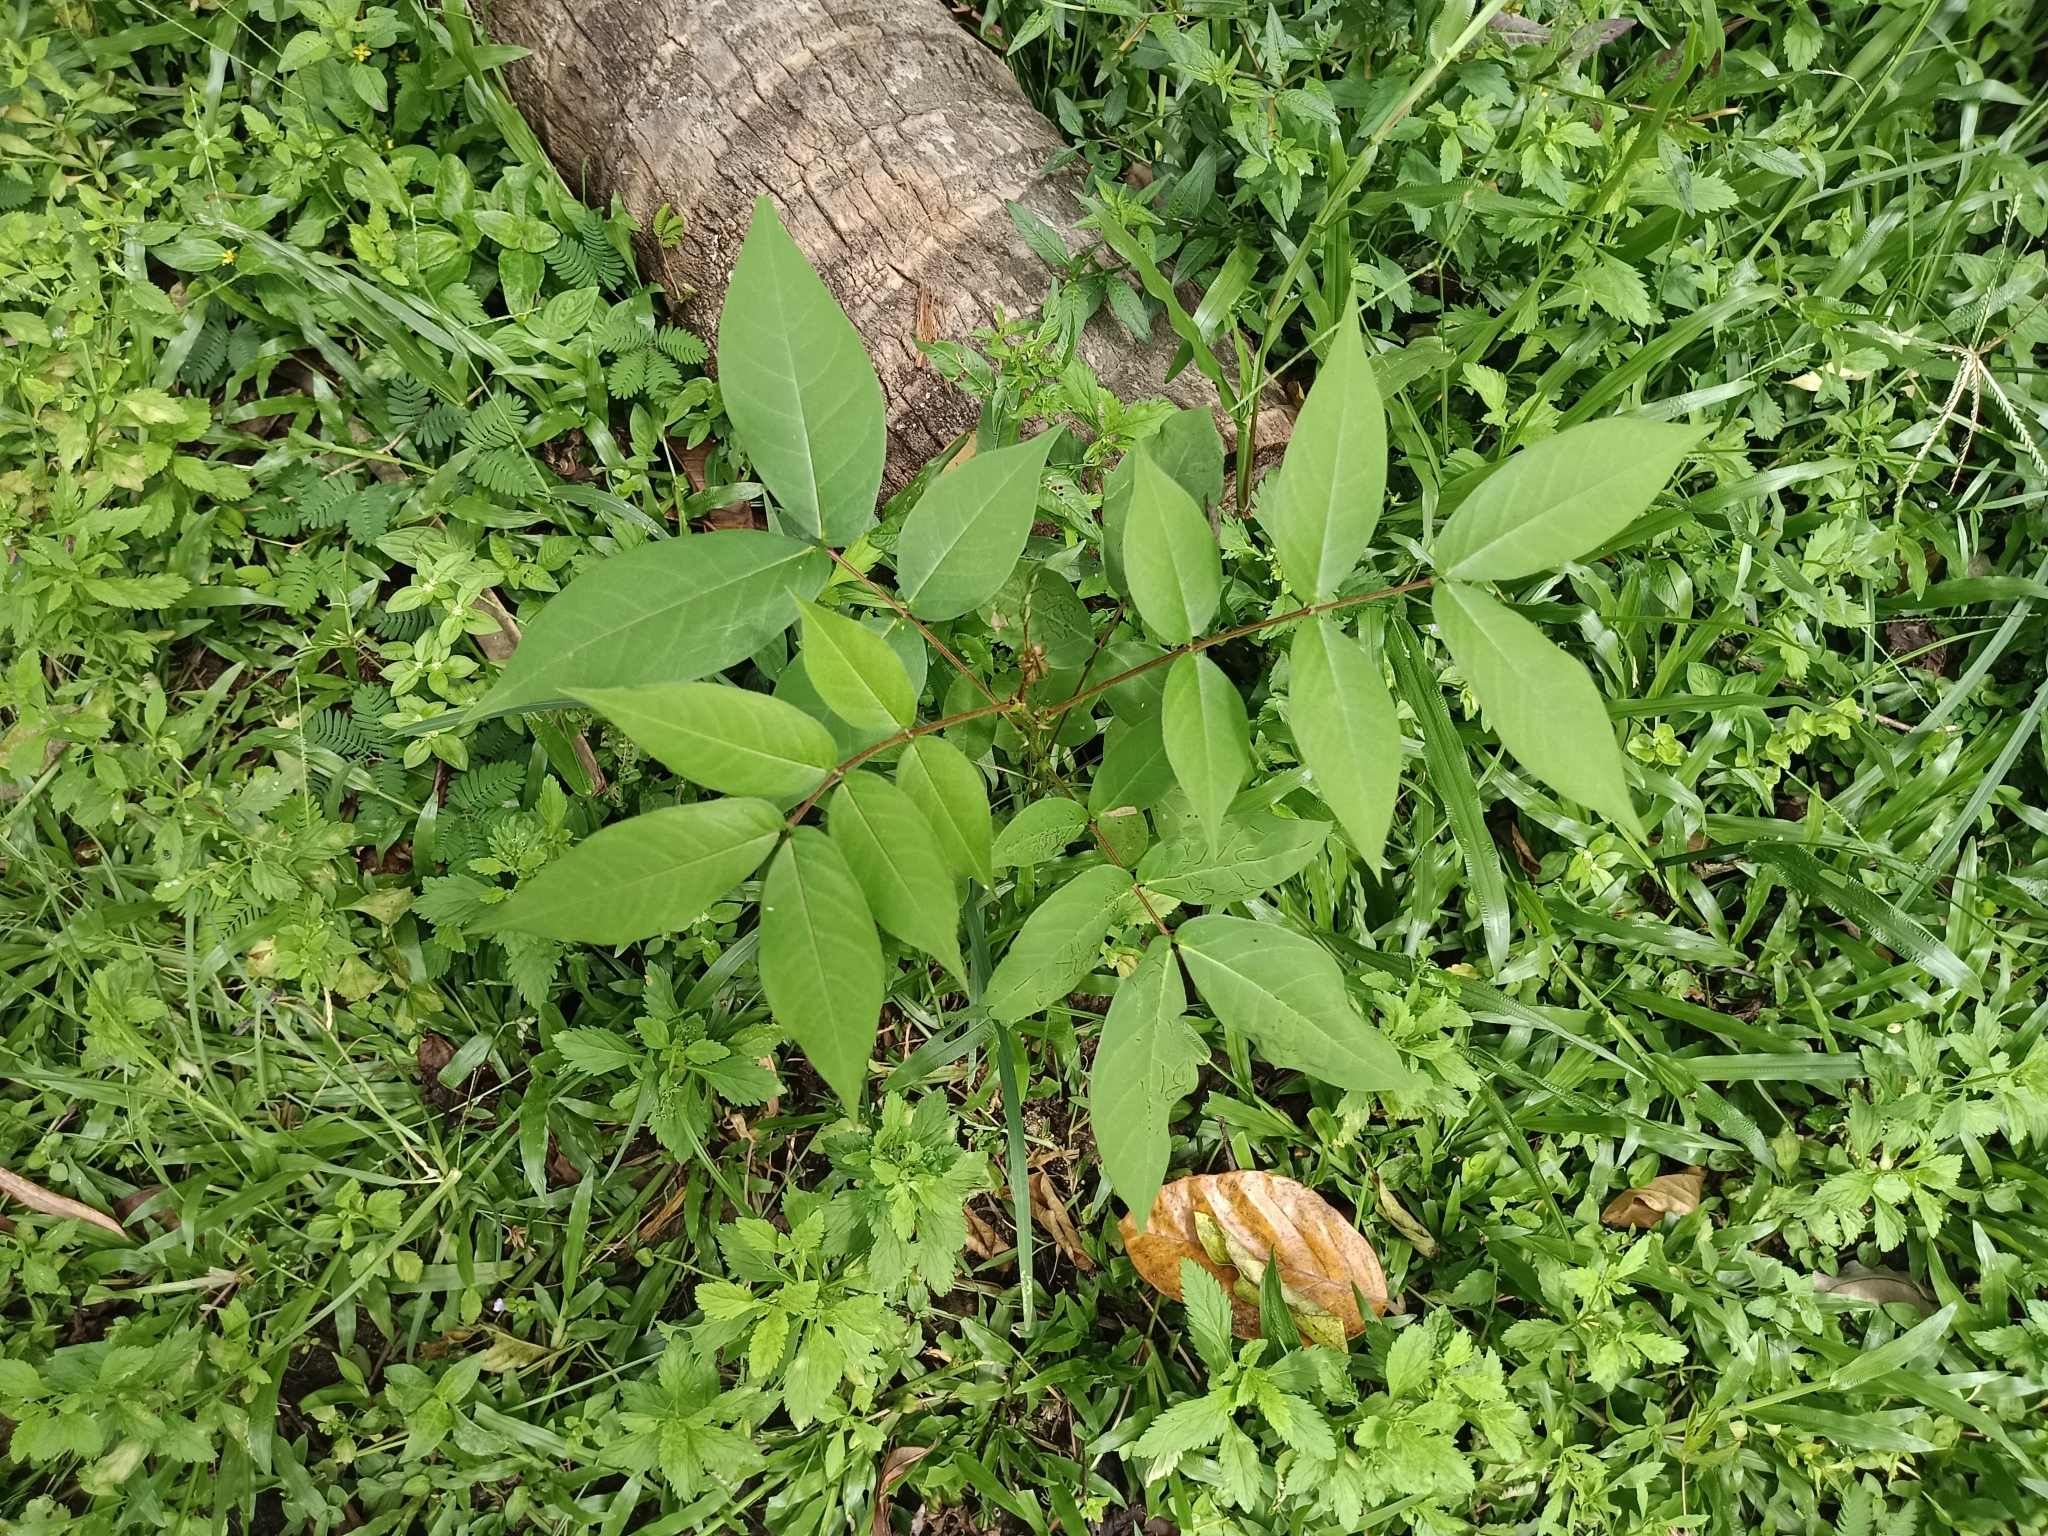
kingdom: Plantae
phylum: Tracheophyta
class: Magnoliopsida
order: Fabales
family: Fabaceae
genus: Senna
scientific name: Senna occidentalis
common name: Septicweed
